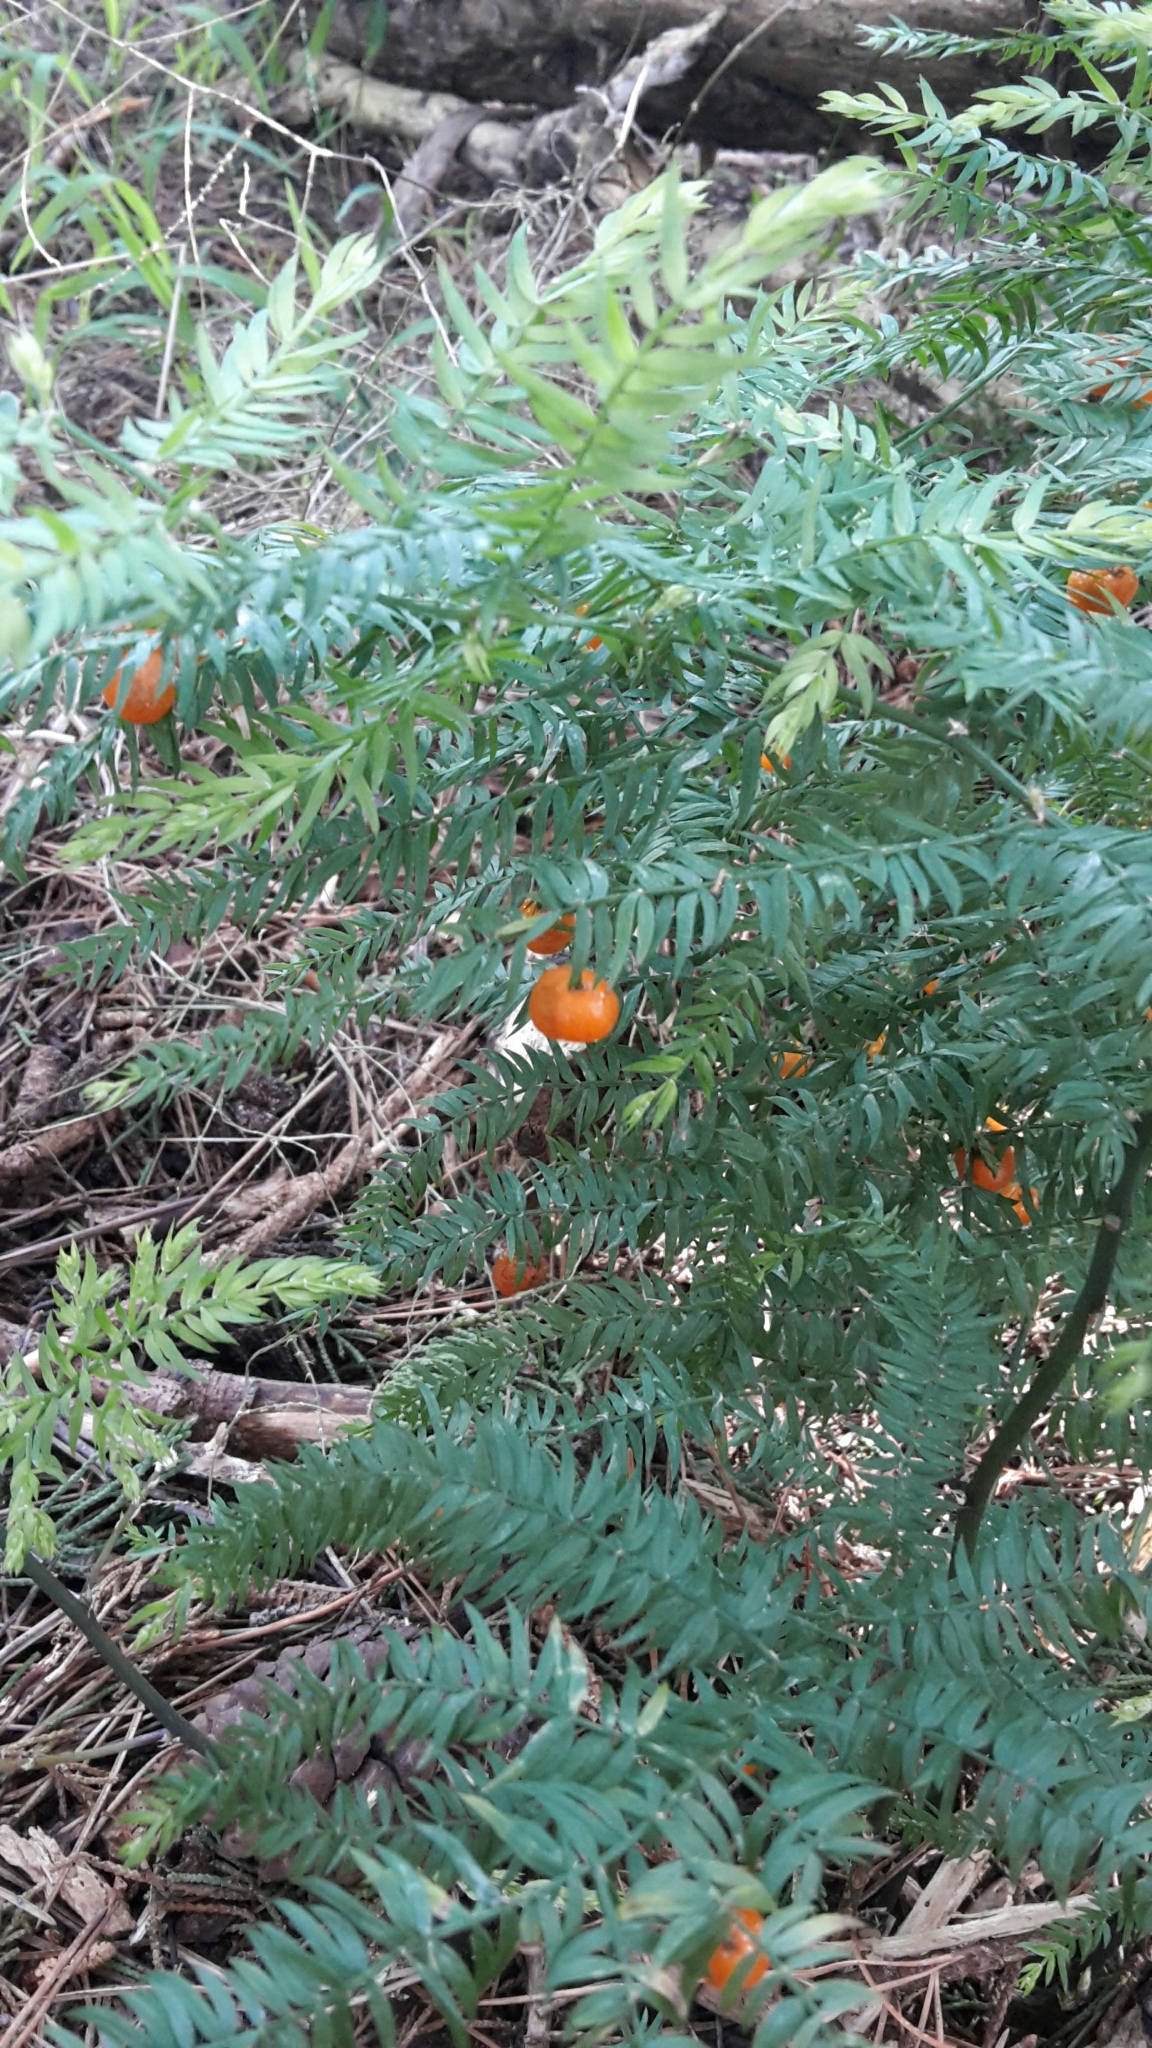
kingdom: Plantae
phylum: Tracheophyta
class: Liliopsida
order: Asparagales
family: Asparagaceae
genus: Asparagus
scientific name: Asparagus scandens
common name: Asparagus-fern
